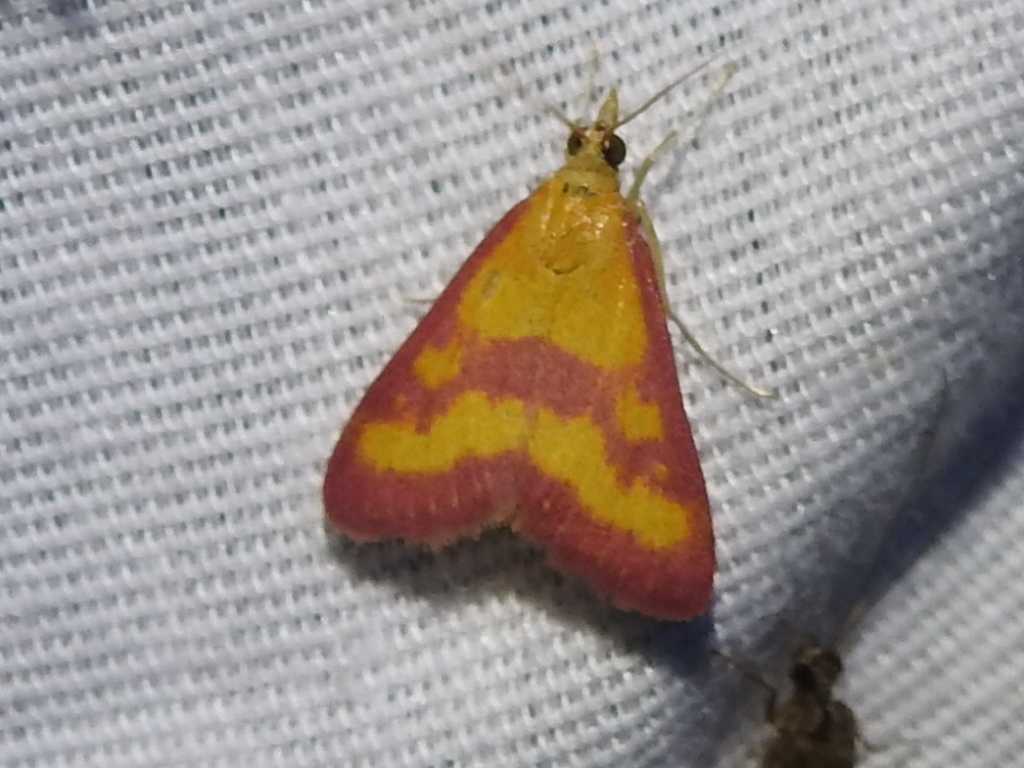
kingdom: Animalia
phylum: Arthropoda
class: Insecta
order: Lepidoptera
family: Crambidae
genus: Pyrausta
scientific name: Pyrausta laticlavia
